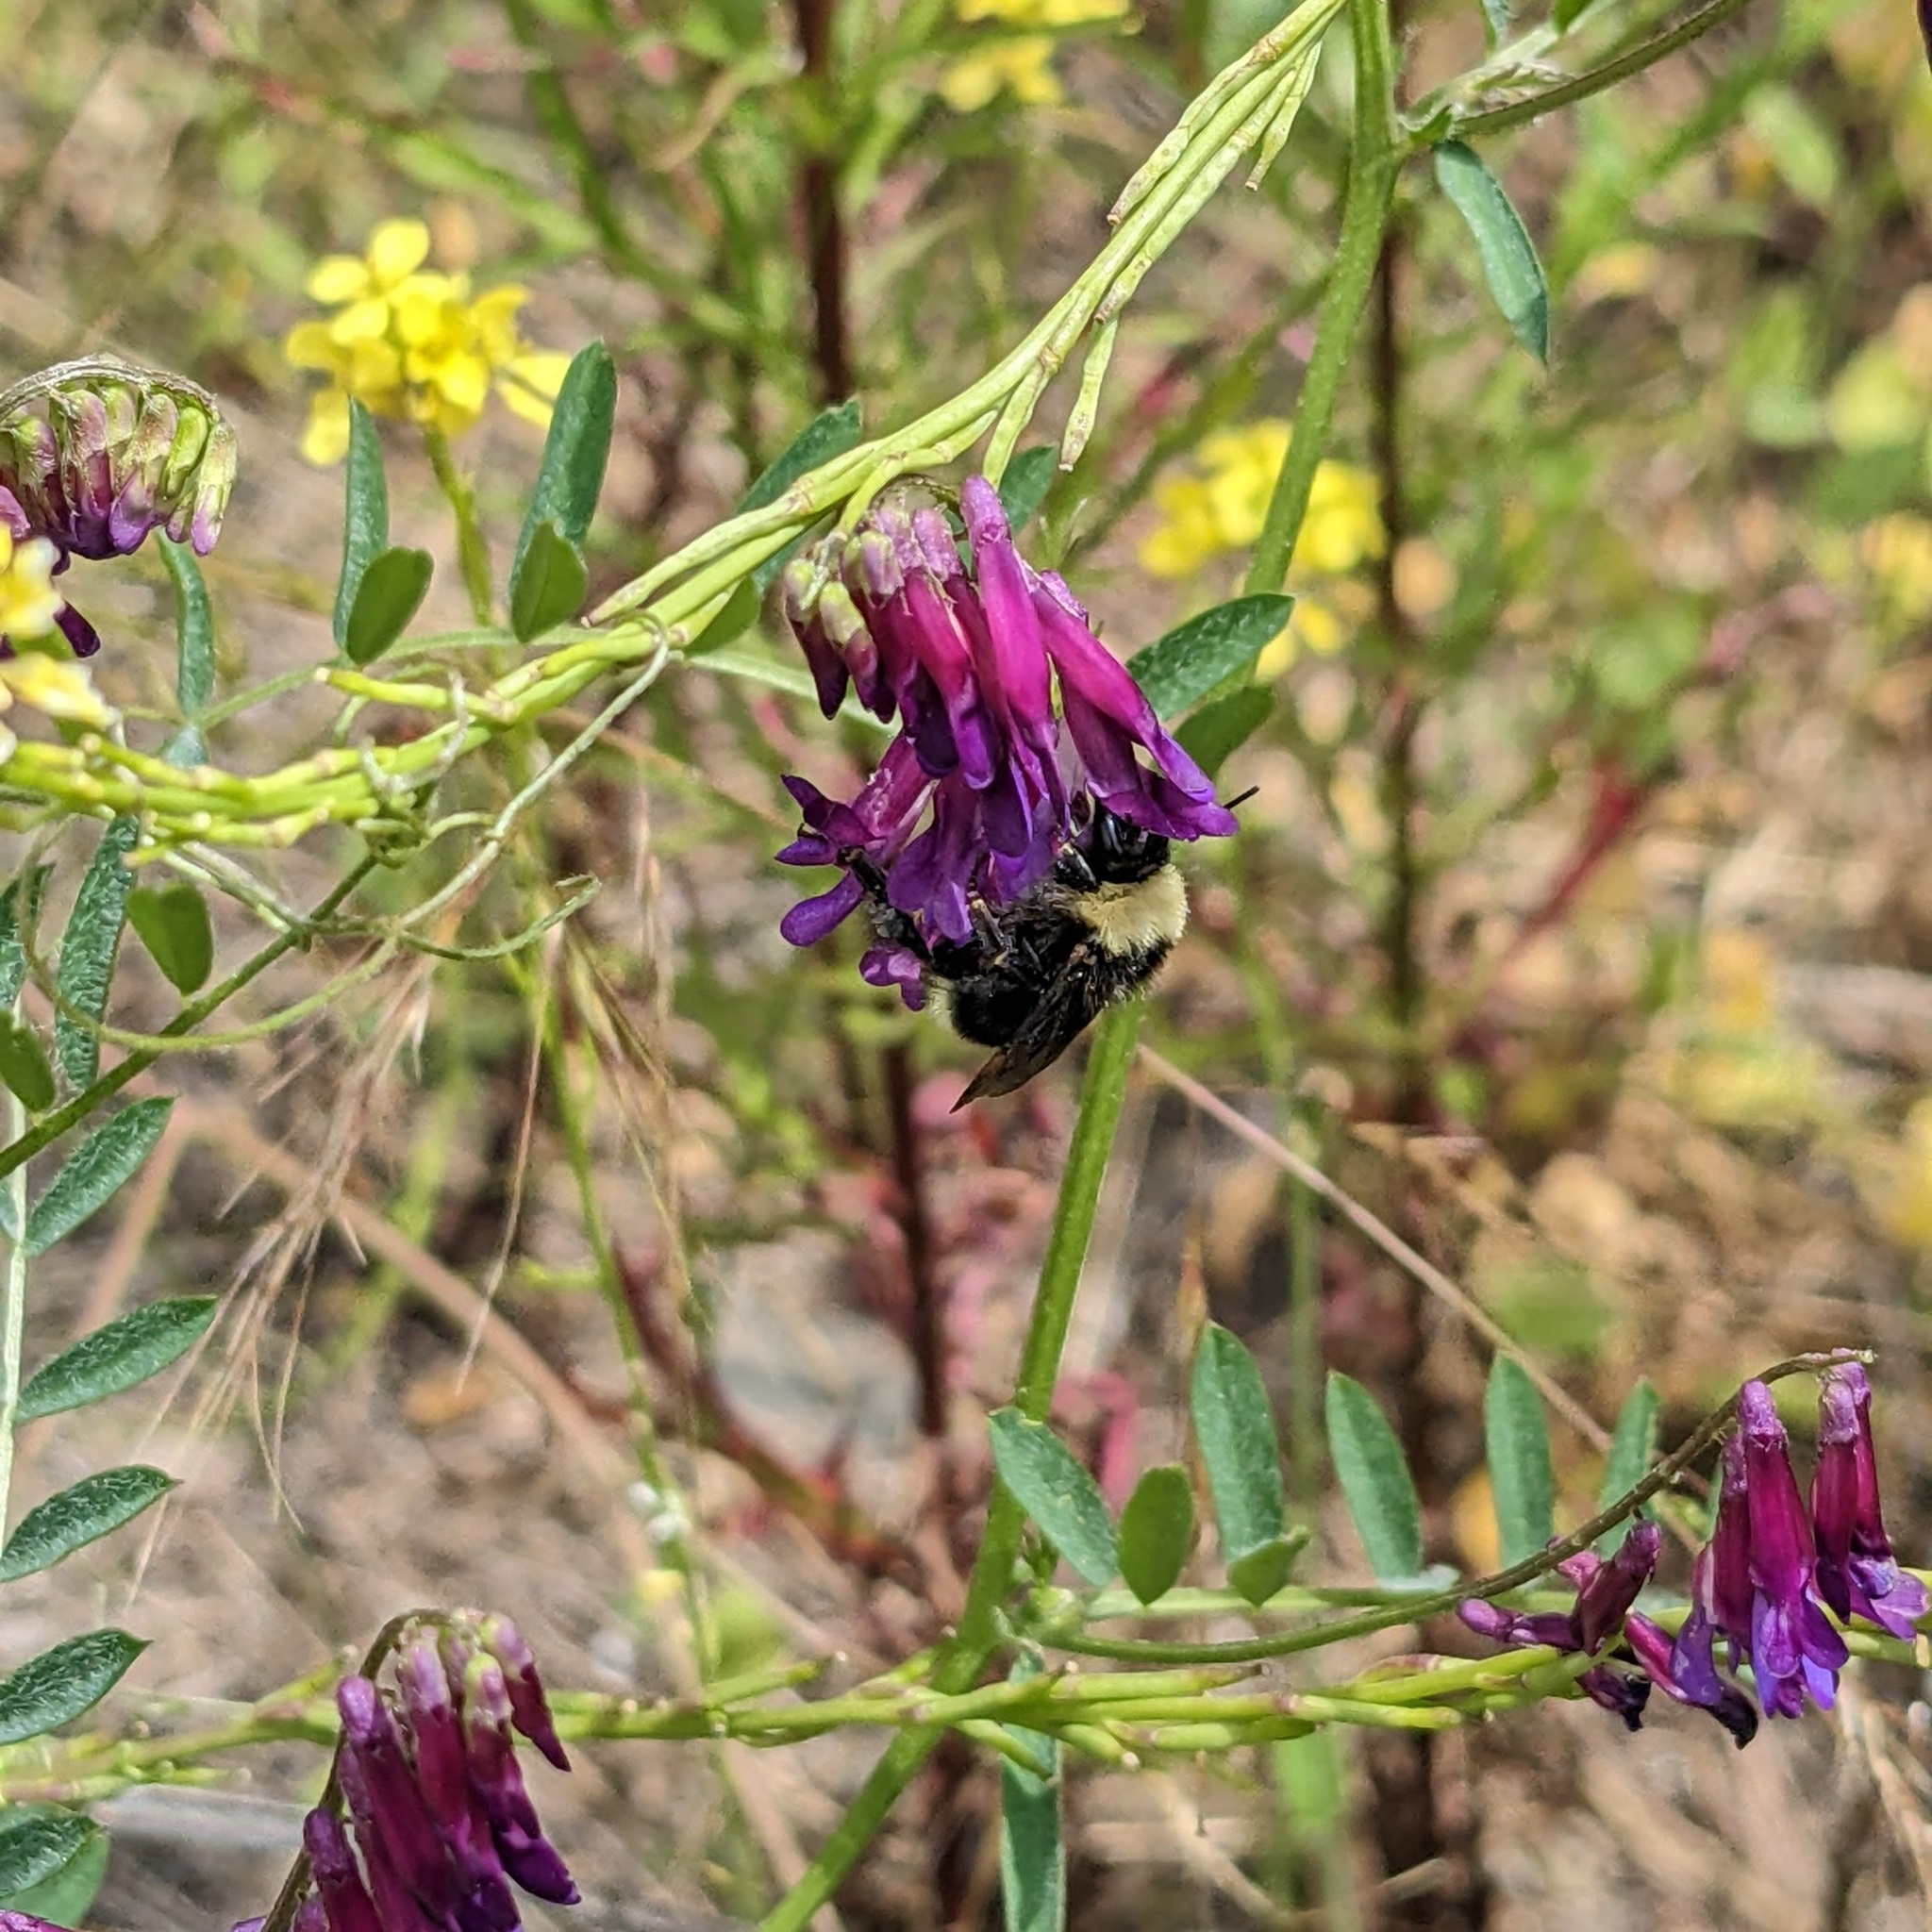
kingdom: Animalia
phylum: Arthropoda
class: Insecta
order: Hymenoptera
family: Apidae
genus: Bombus
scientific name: Bombus californicus
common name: California bumble bee
